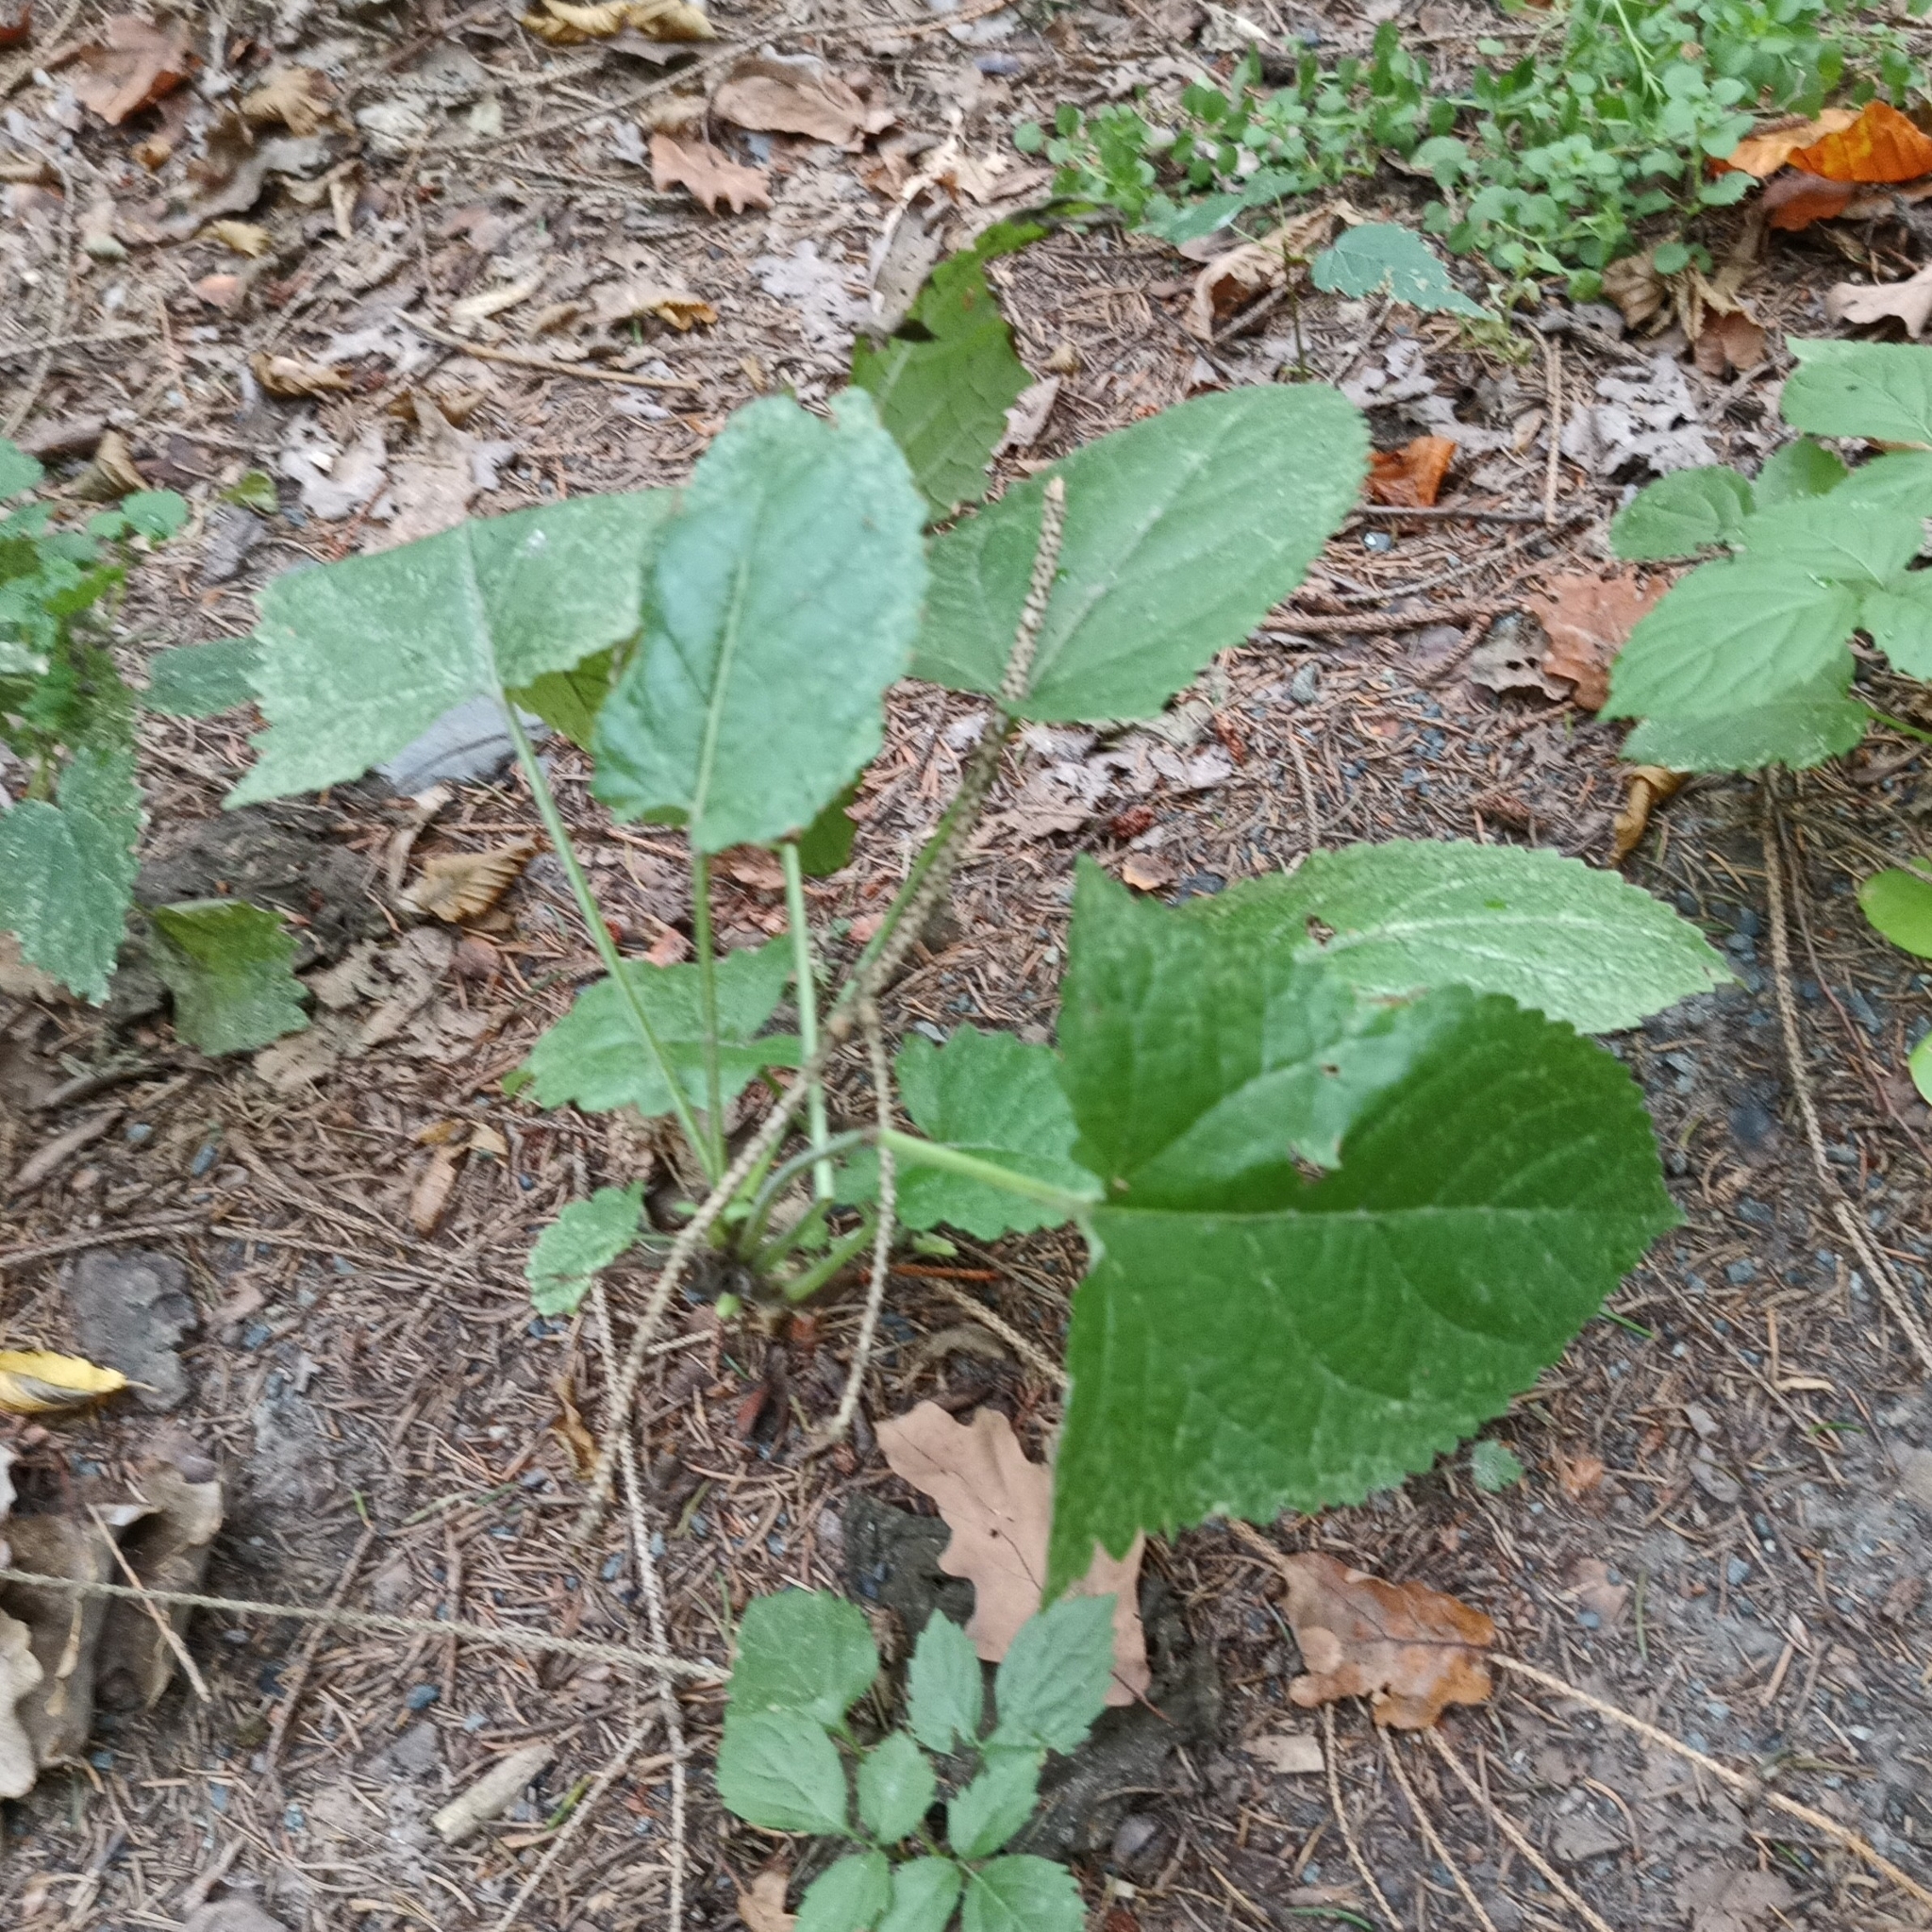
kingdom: Plantae
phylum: Tracheophyta
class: Magnoliopsida
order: Lamiales
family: Lamiaceae
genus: Salvia
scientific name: Salvia glutinosa
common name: Sticky clary
